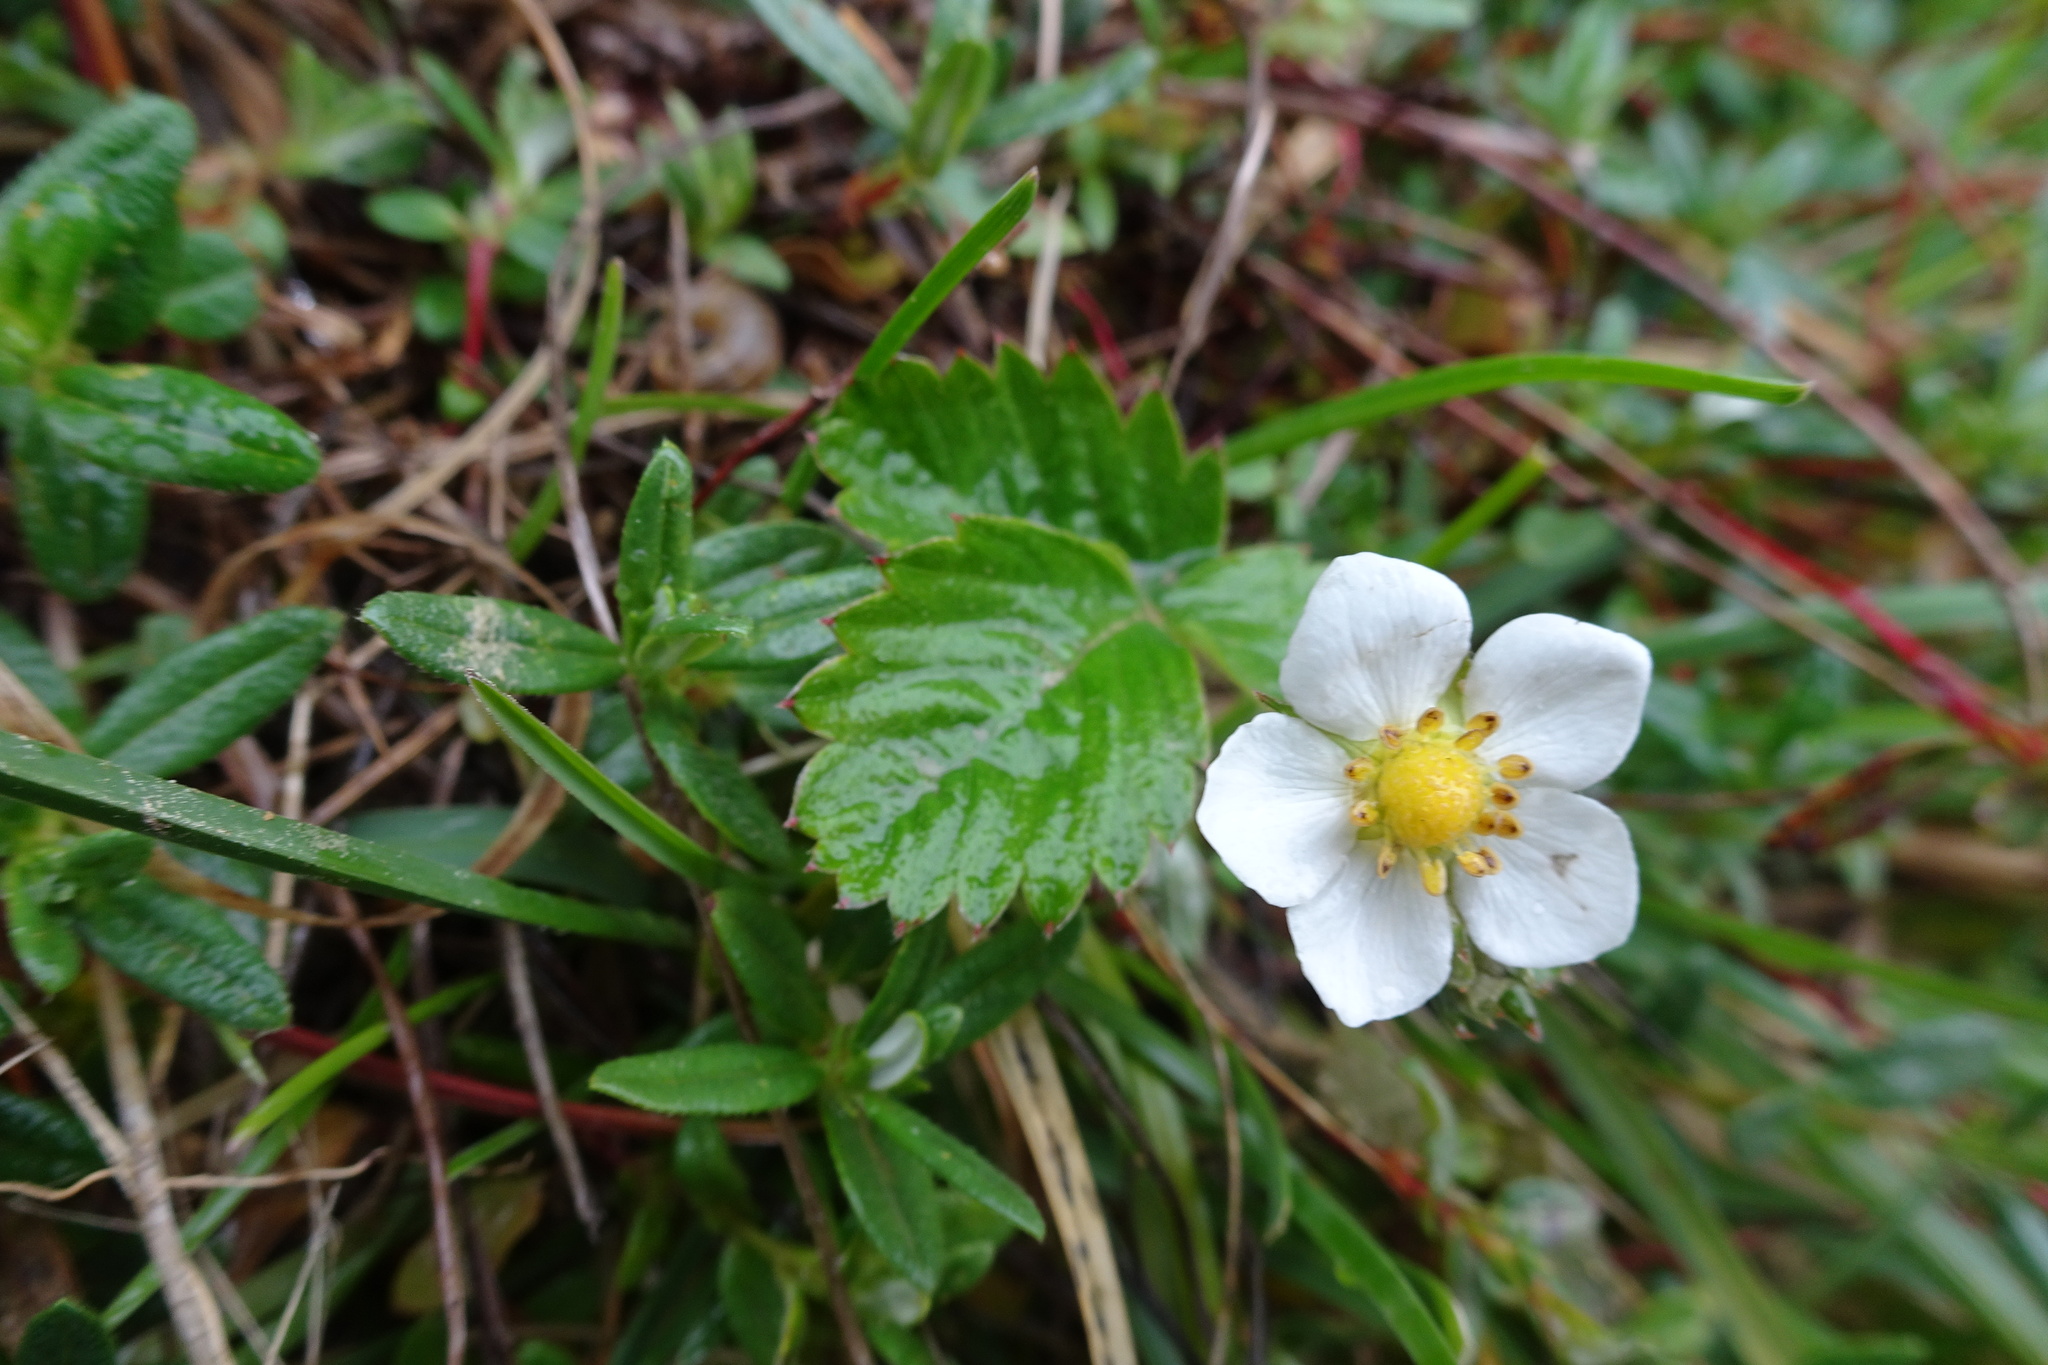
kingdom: Plantae
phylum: Tracheophyta
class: Magnoliopsida
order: Rosales
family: Rosaceae
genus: Fragaria
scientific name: Fragaria vesca
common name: Wild strawberry
